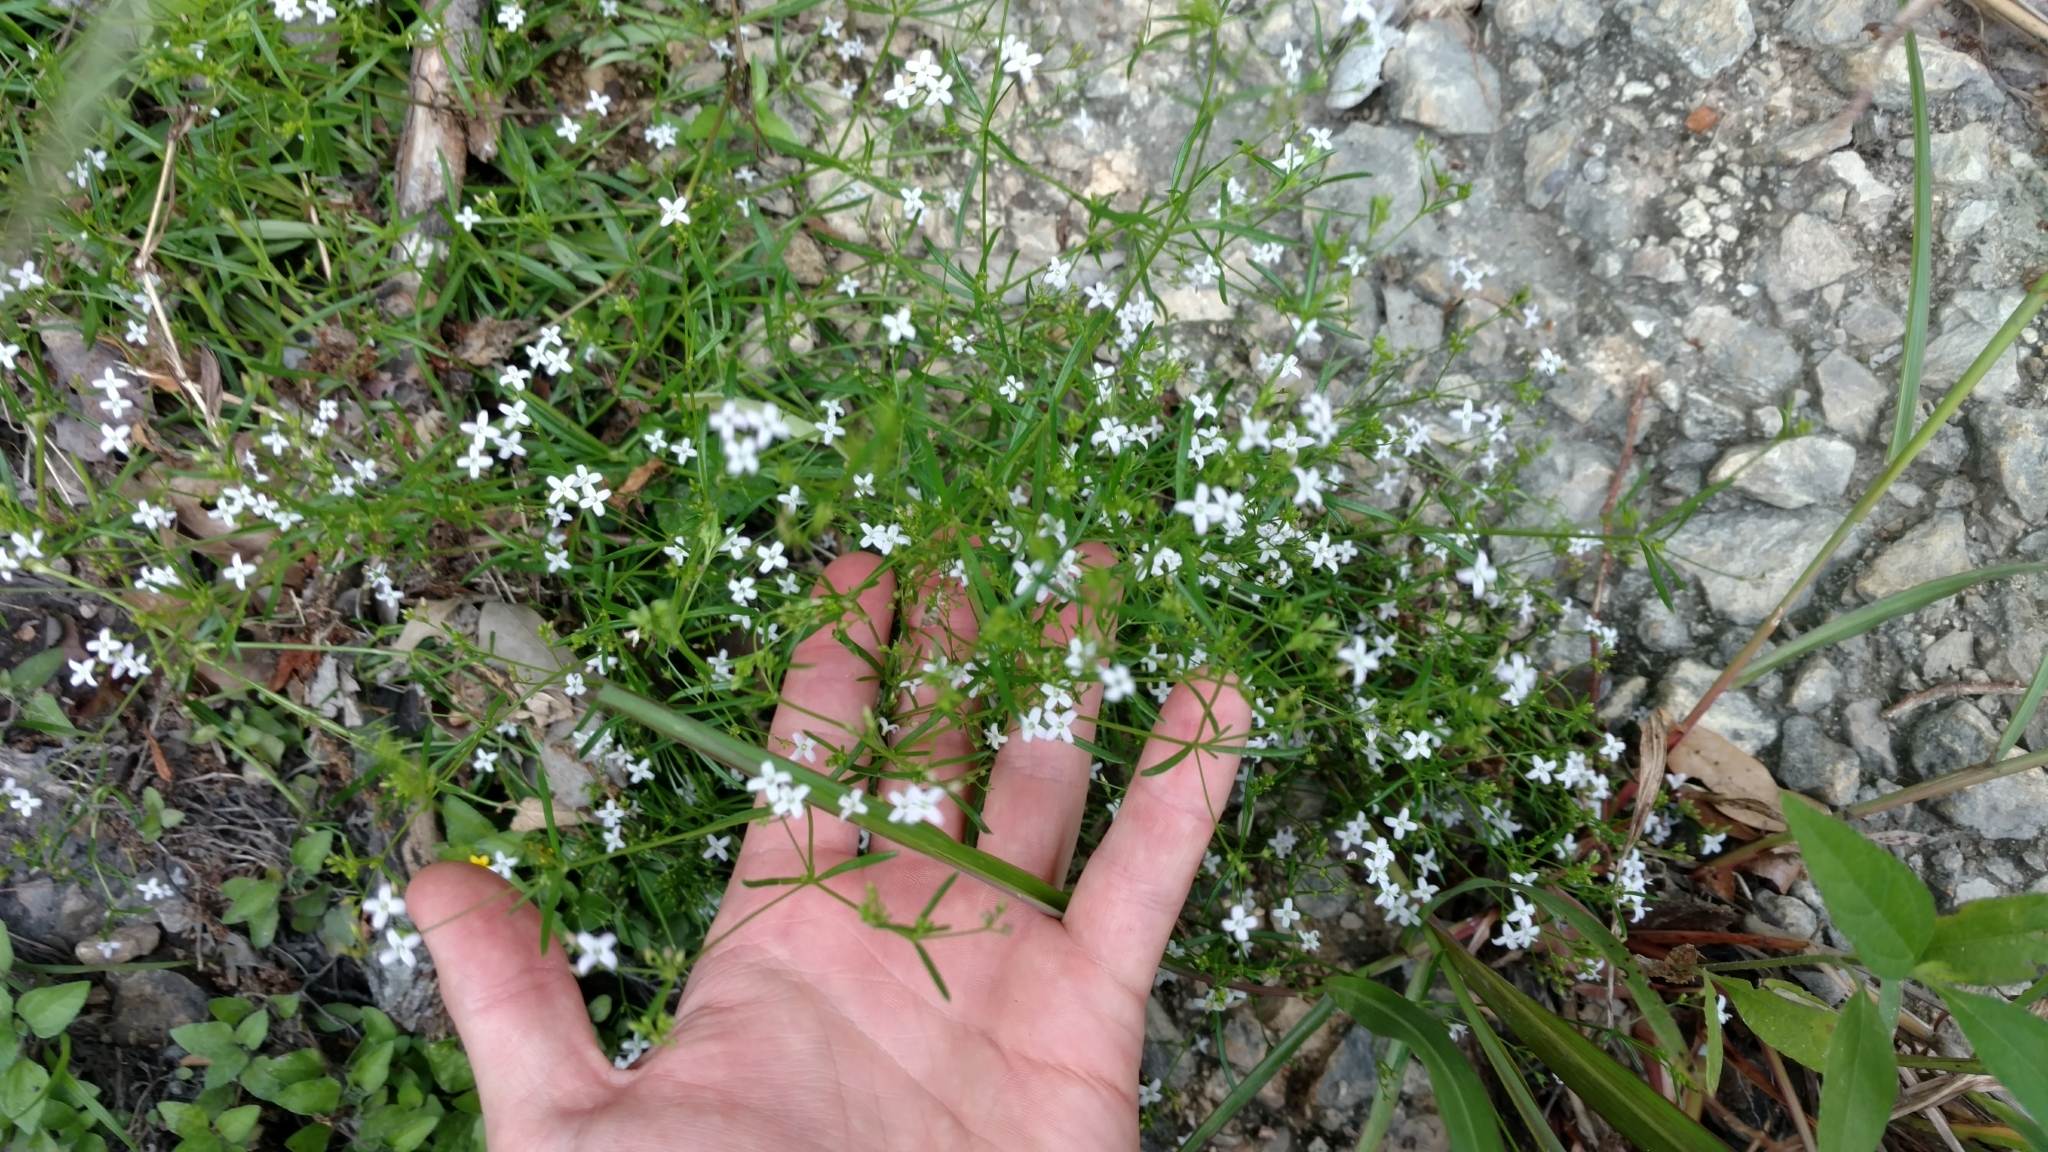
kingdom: Plantae
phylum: Tracheophyta
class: Magnoliopsida
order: Gentianales
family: Rubiaceae
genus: Stenaria
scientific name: Stenaria nigricans
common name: Diamondflowers
